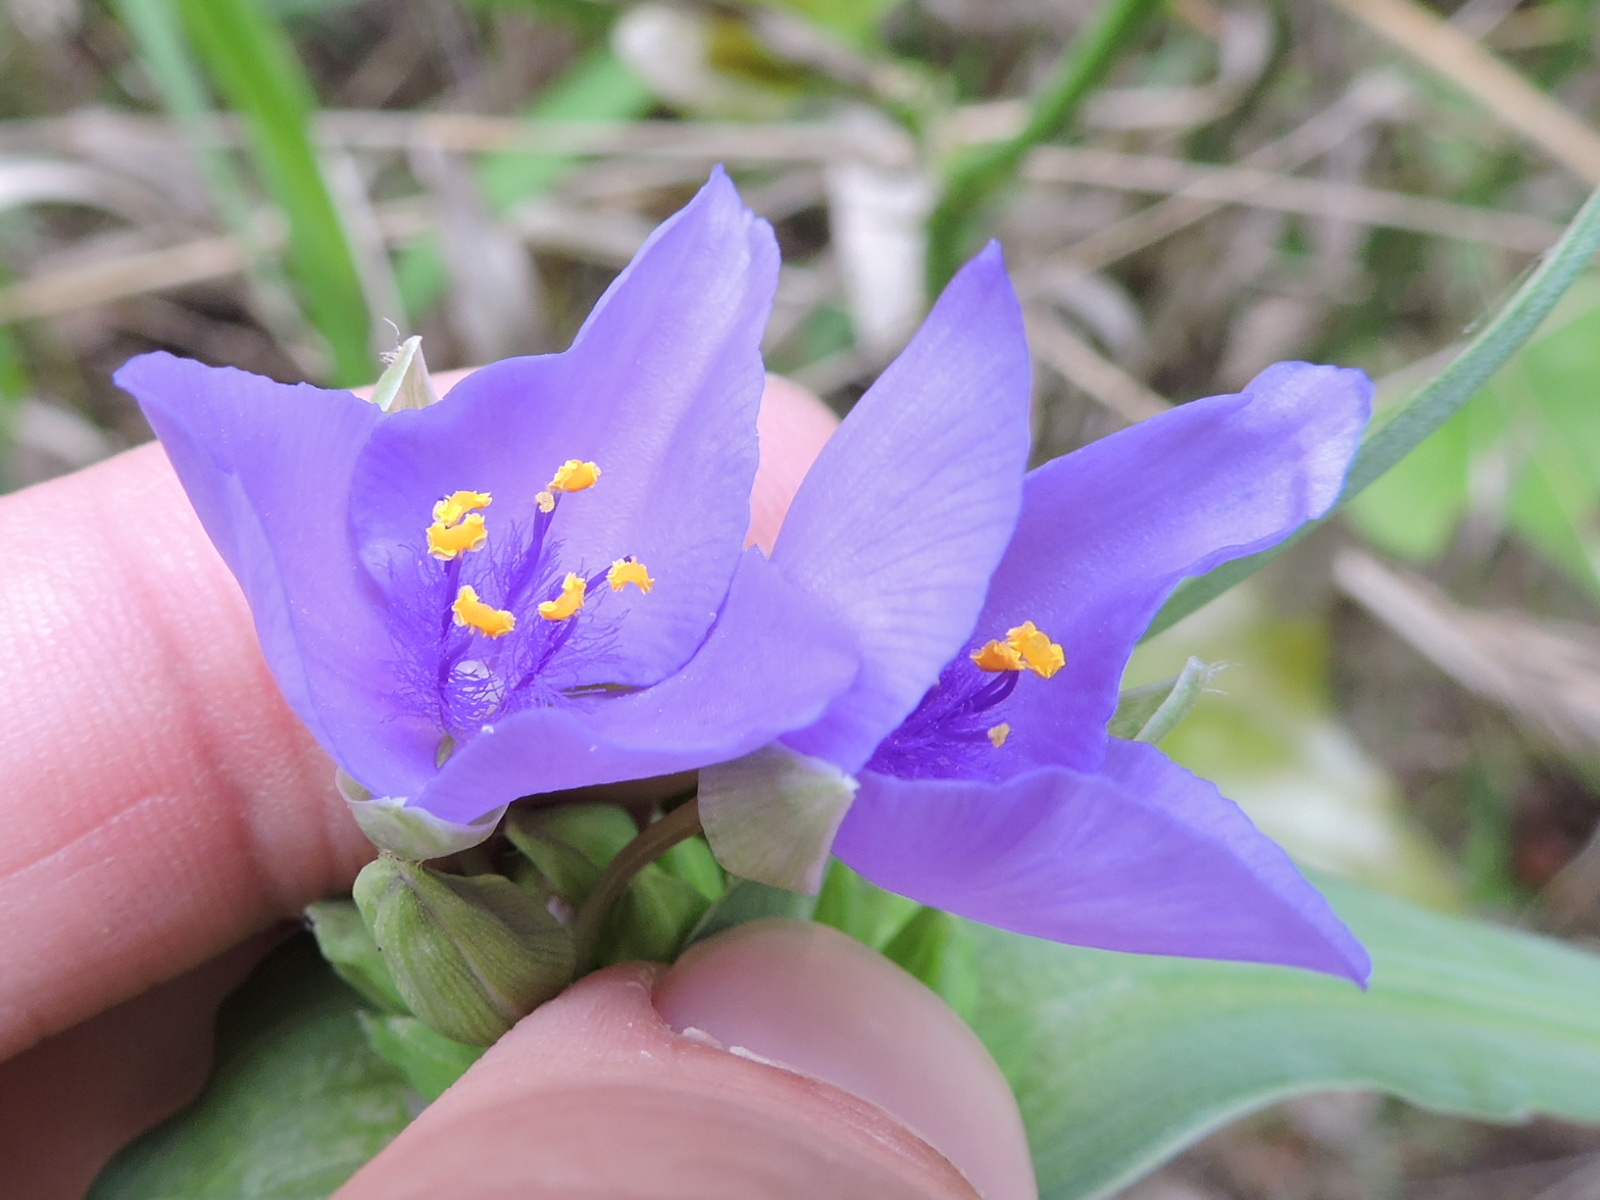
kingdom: Plantae
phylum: Tracheophyta
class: Liliopsida
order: Commelinales
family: Commelinaceae
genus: Tradescantia
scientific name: Tradescantia ohiensis
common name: Ohio spiderwort
